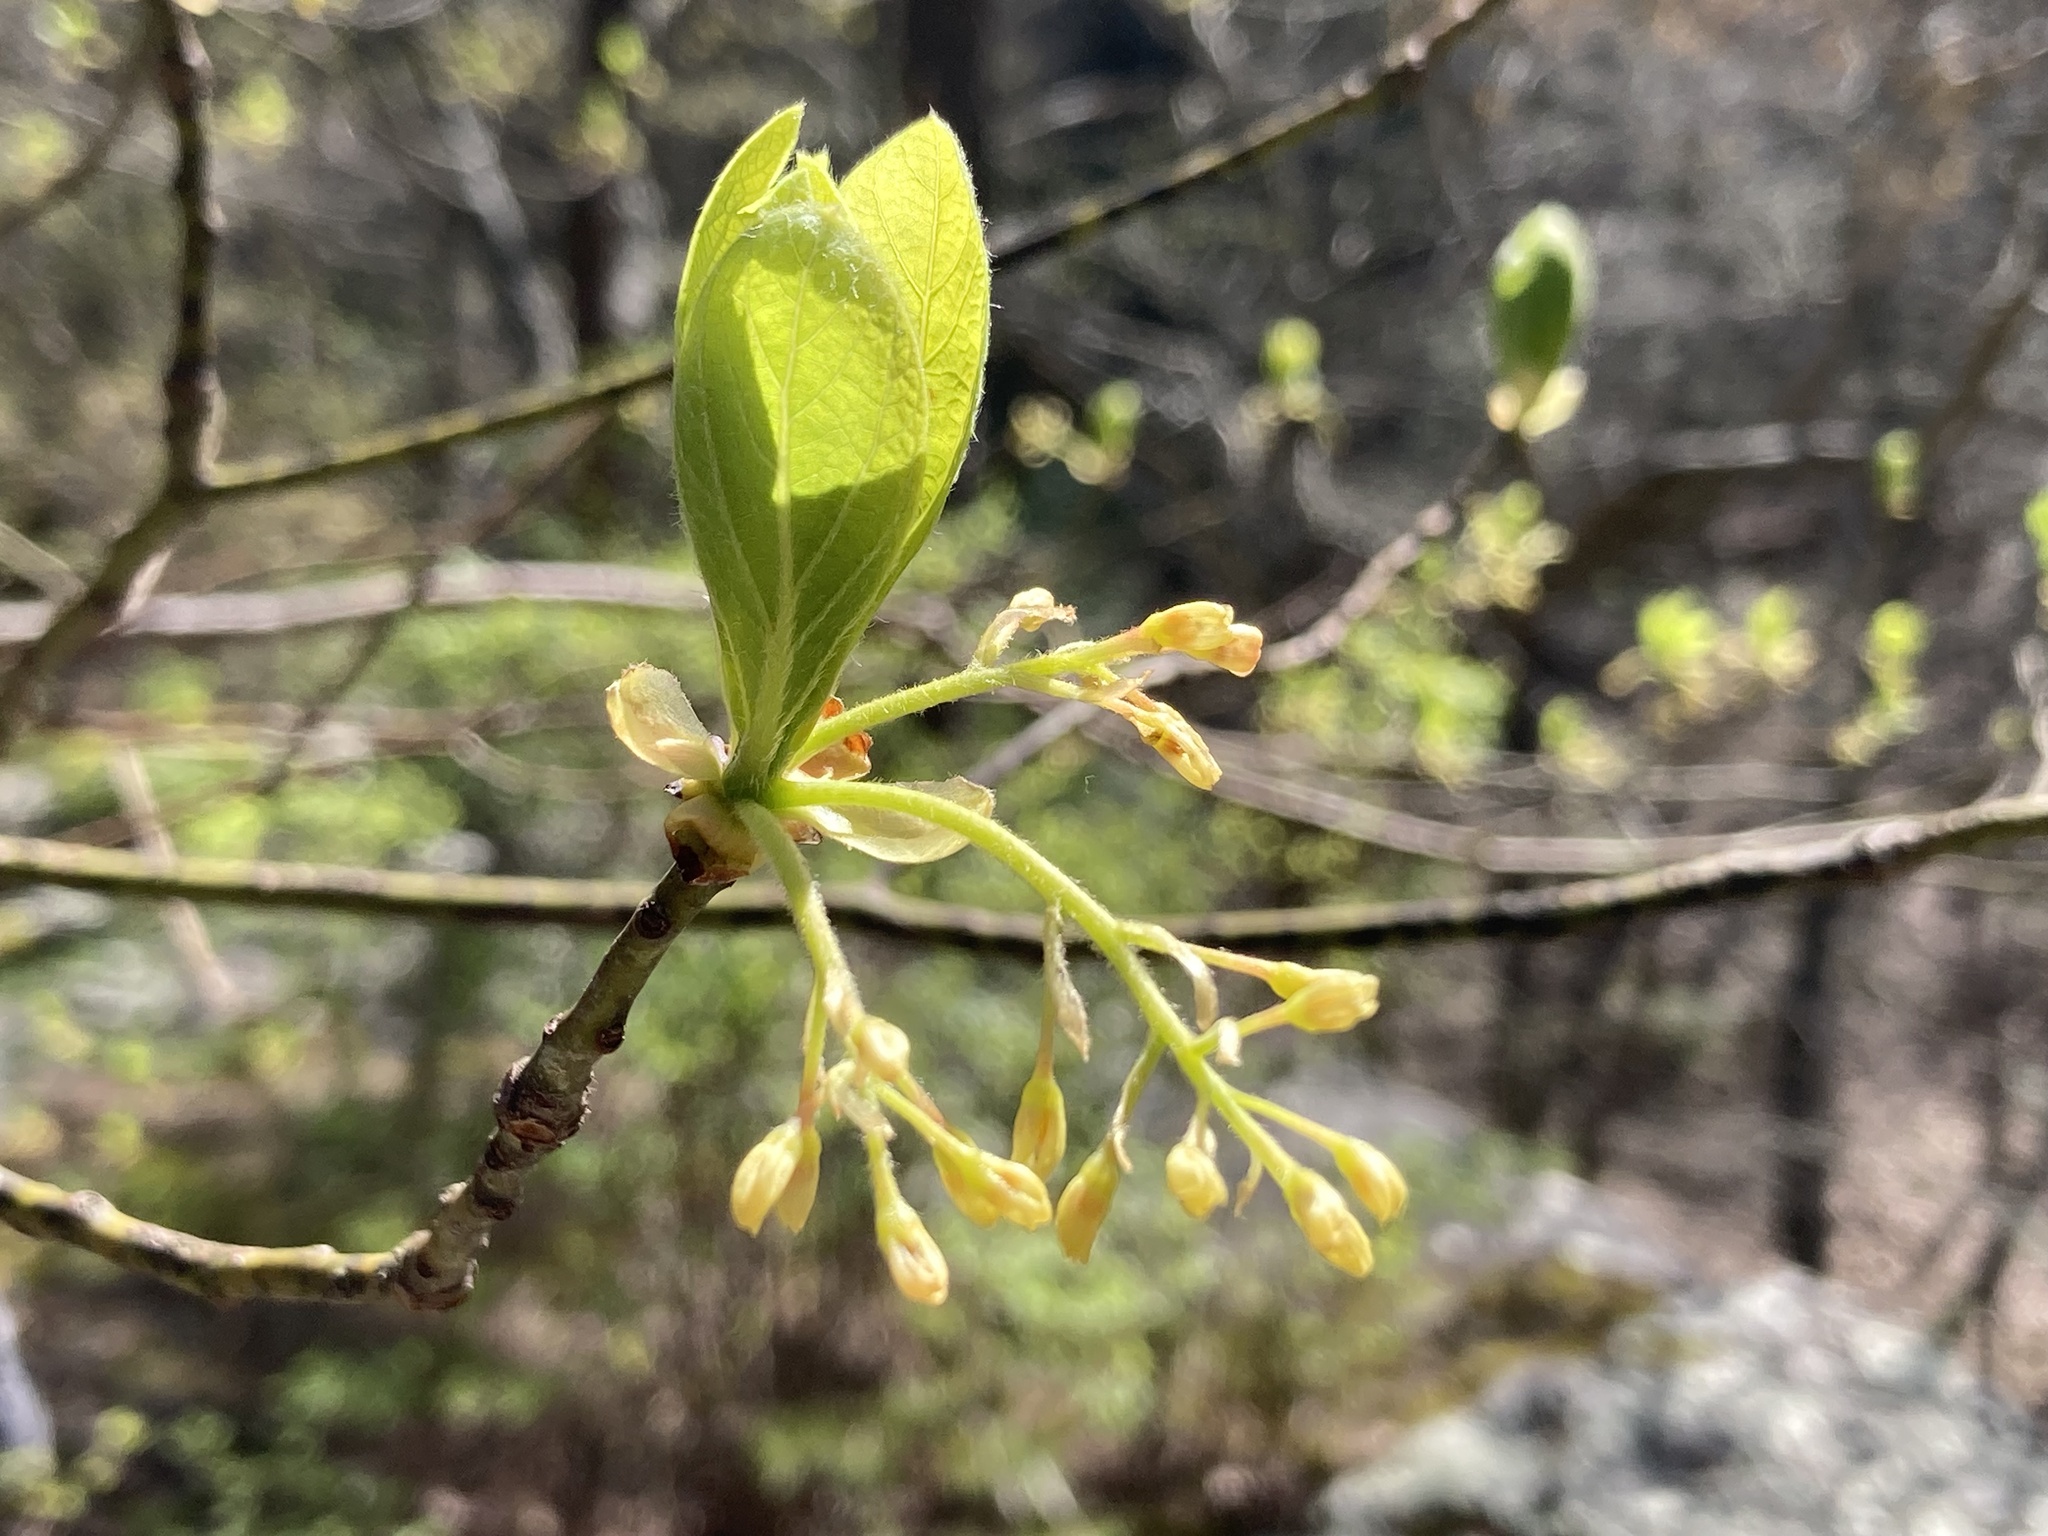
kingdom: Plantae
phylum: Tracheophyta
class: Magnoliopsida
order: Laurales
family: Lauraceae
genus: Sassafras
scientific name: Sassafras albidum
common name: Sassafras
